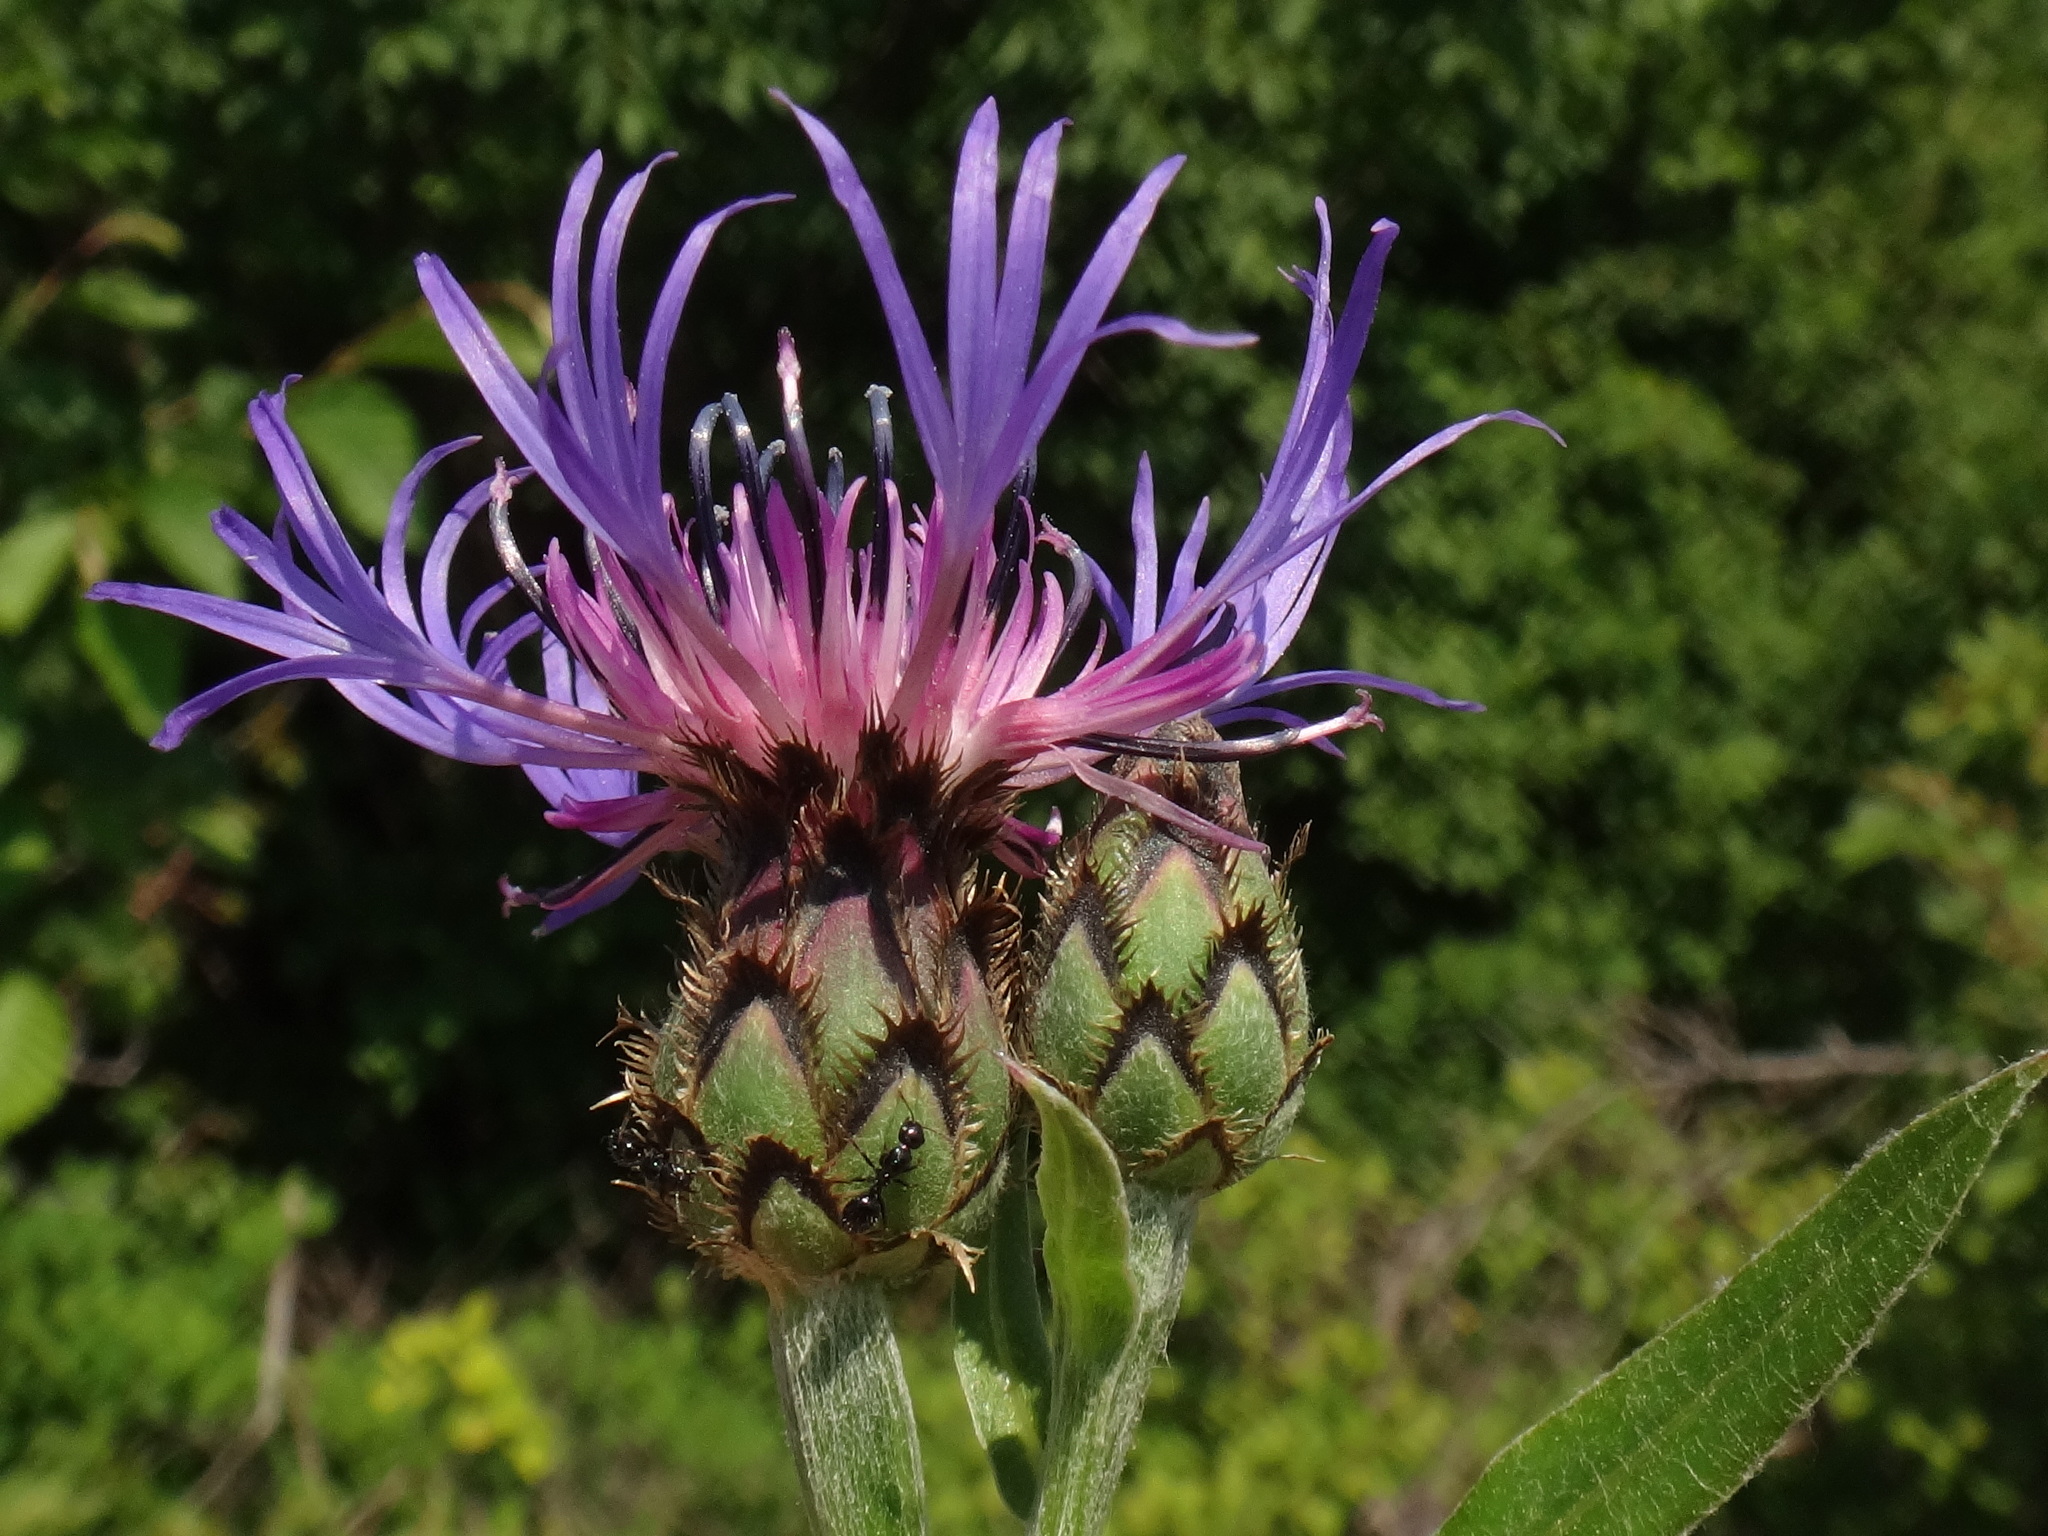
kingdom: Plantae
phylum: Tracheophyta
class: Magnoliopsida
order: Asterales
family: Asteraceae
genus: Centaurea
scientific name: Centaurea montana
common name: Perennial cornflower
